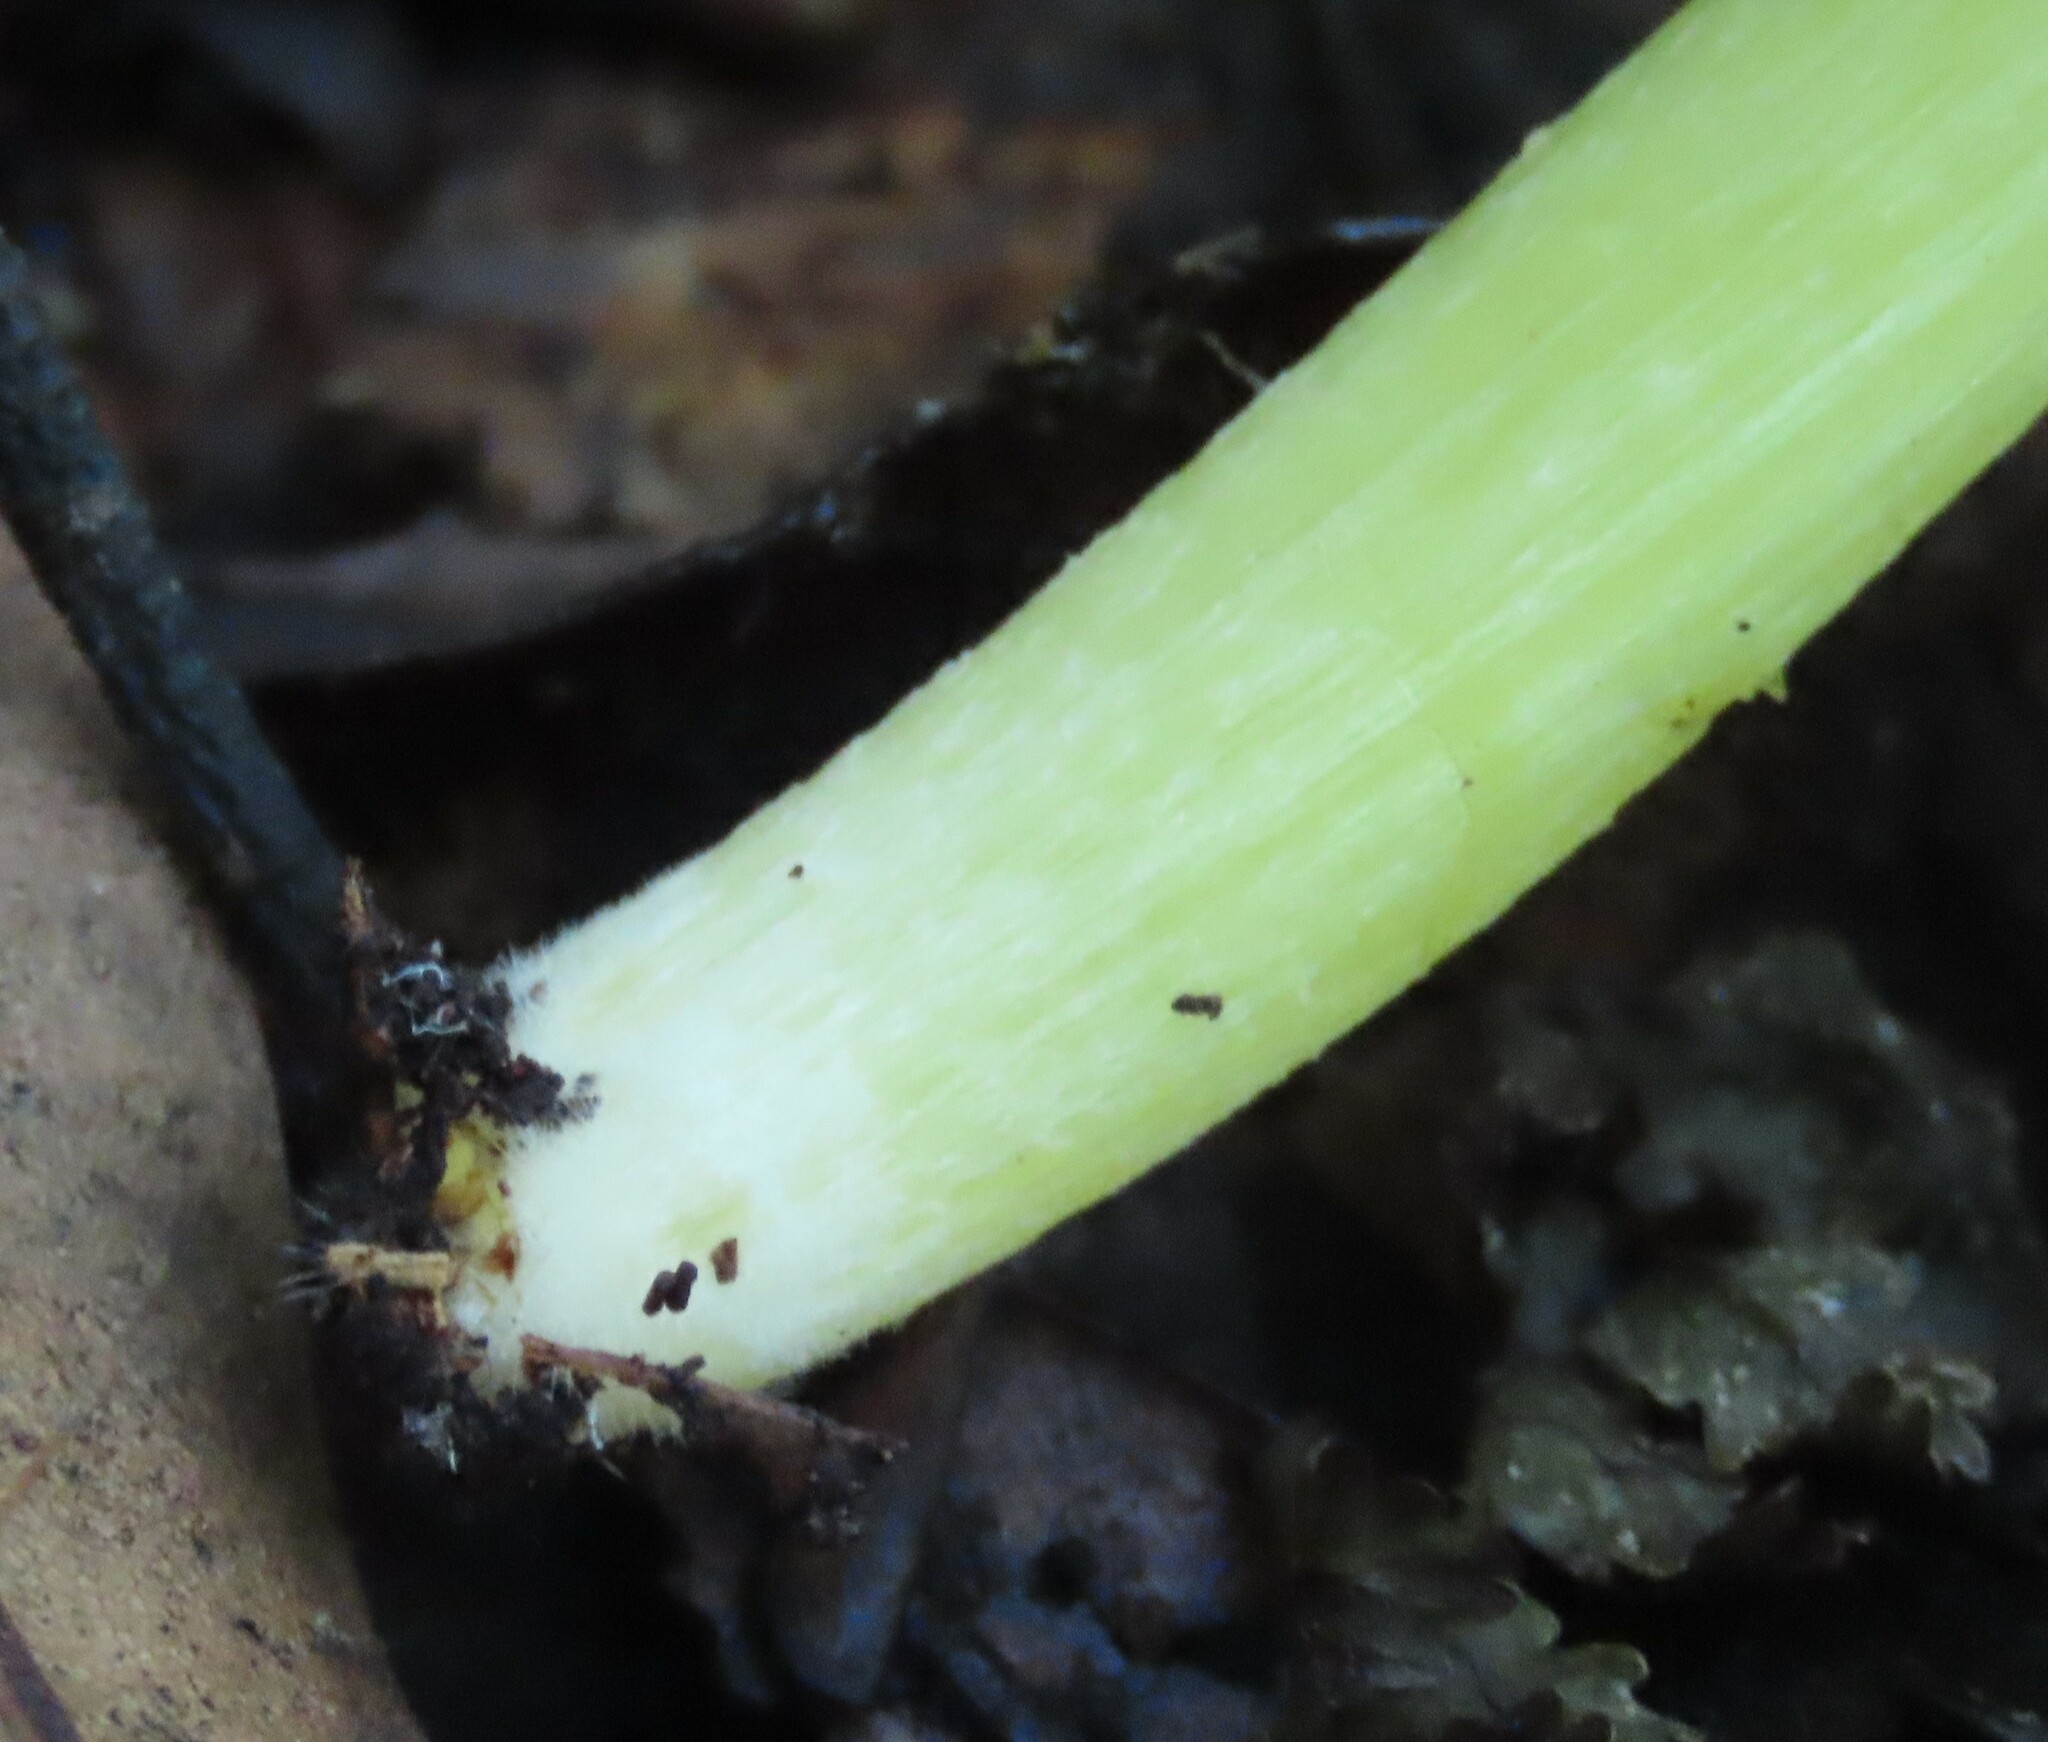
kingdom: Fungi
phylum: Basidiomycota
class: Agaricomycetes
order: Agaricales
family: Hygrophoraceae
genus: Hygrocybe
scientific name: Hygrocybe striatolutea
